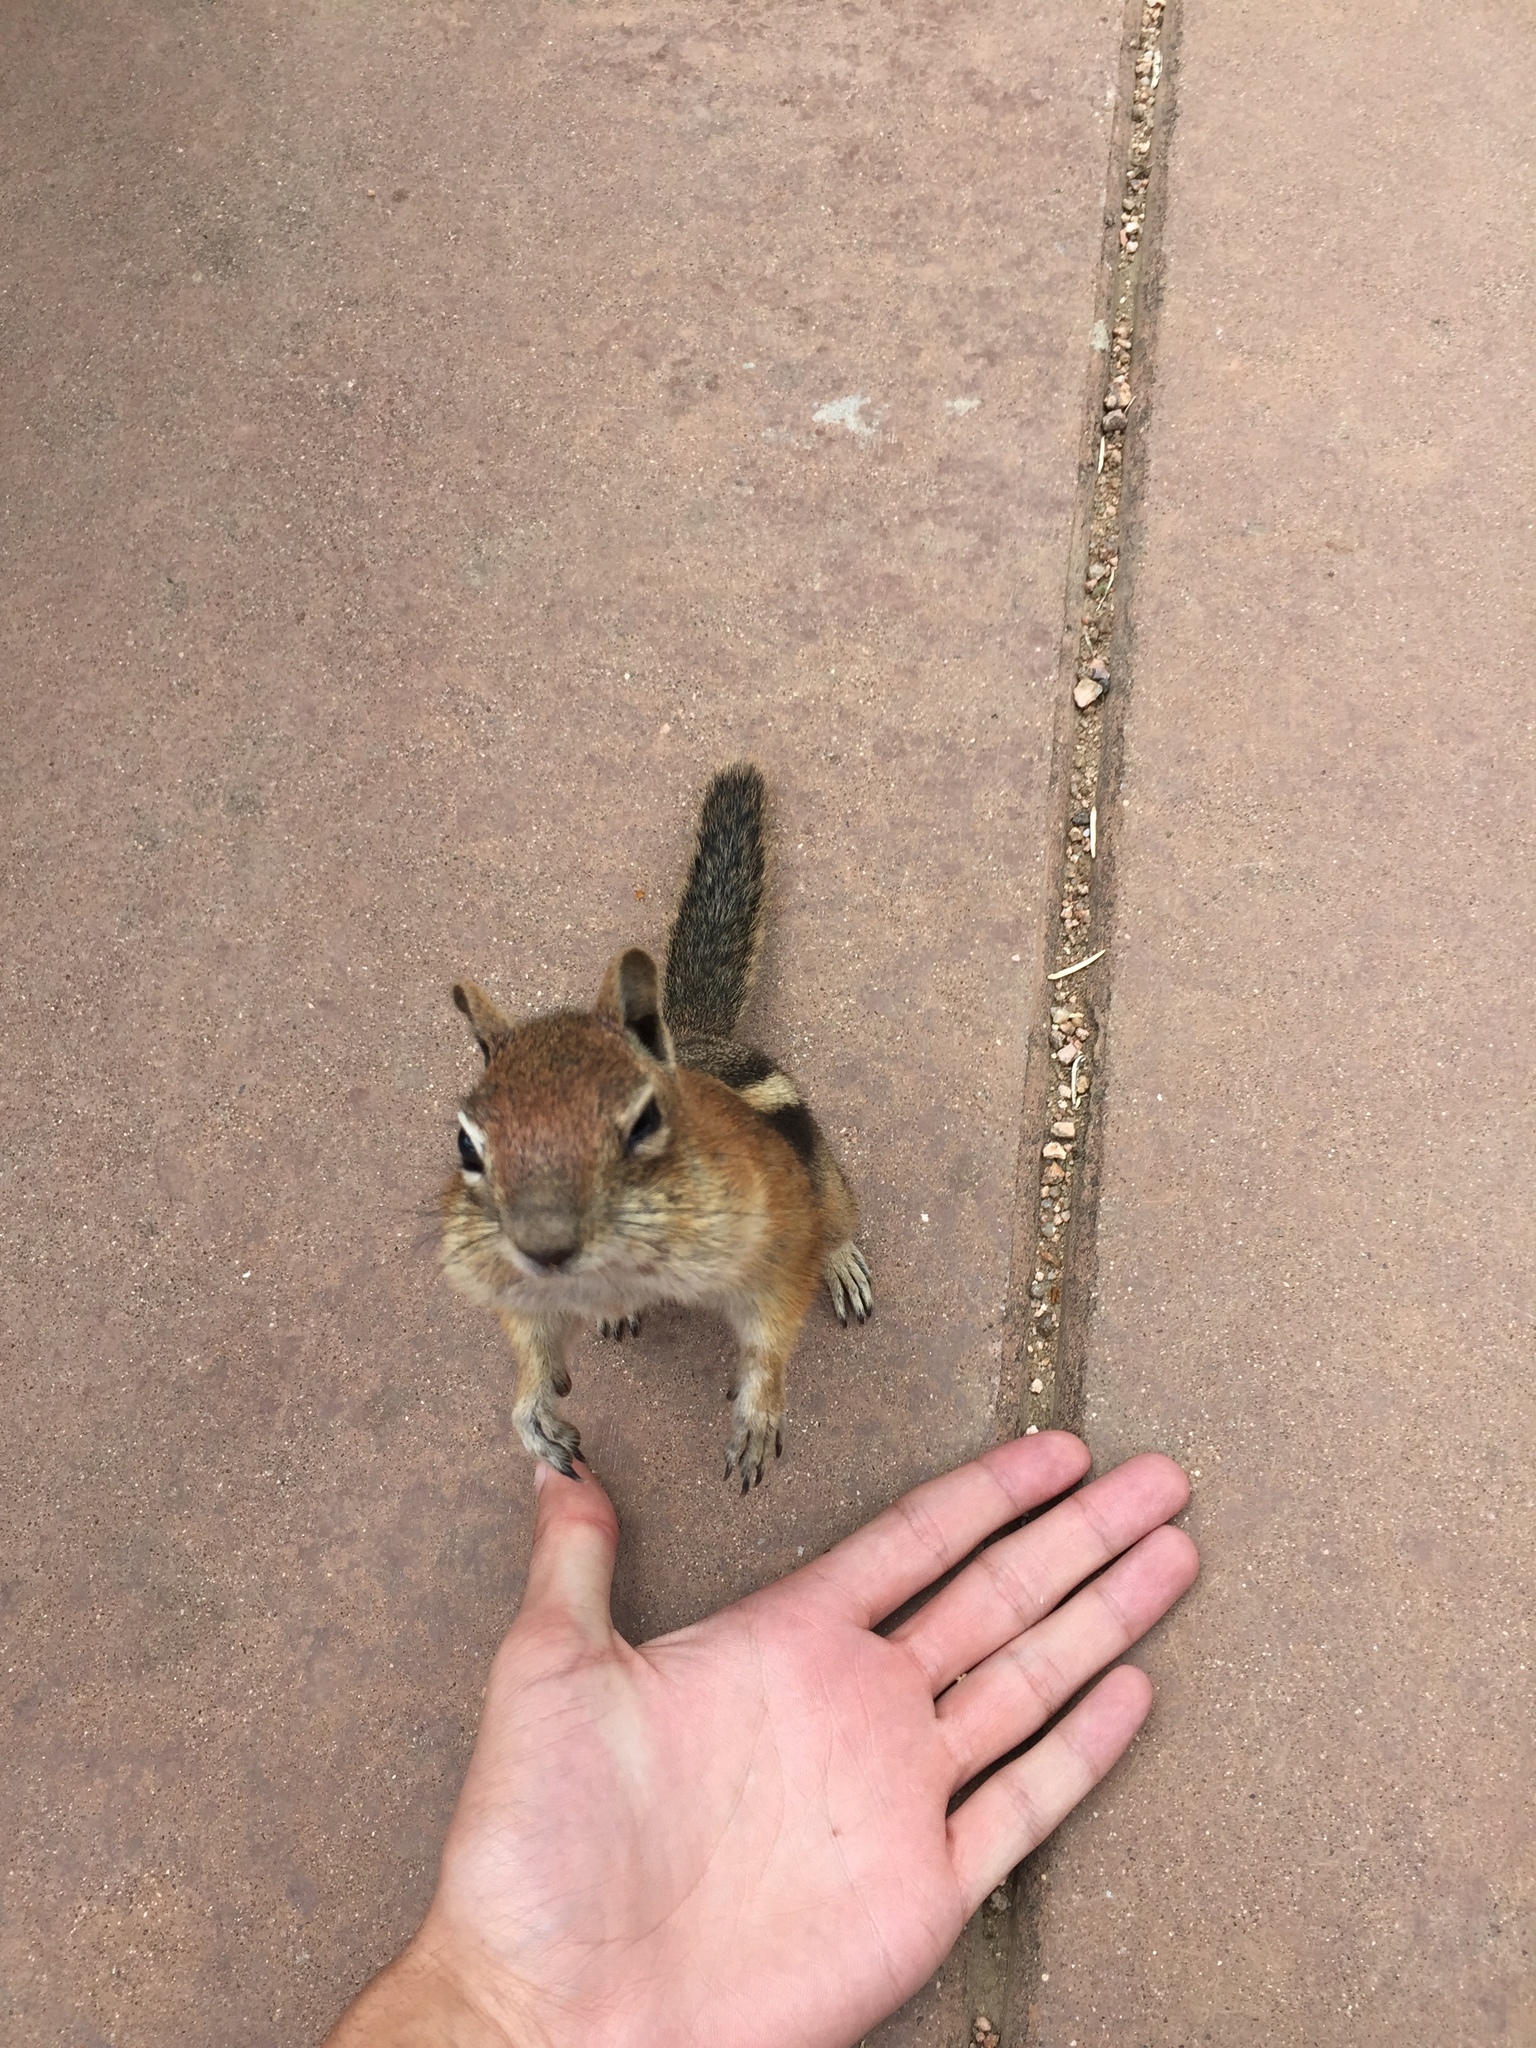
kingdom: Animalia
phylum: Chordata
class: Mammalia
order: Rodentia
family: Sciuridae
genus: Callospermophilus
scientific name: Callospermophilus lateralis
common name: Golden-mantled ground squirrel
